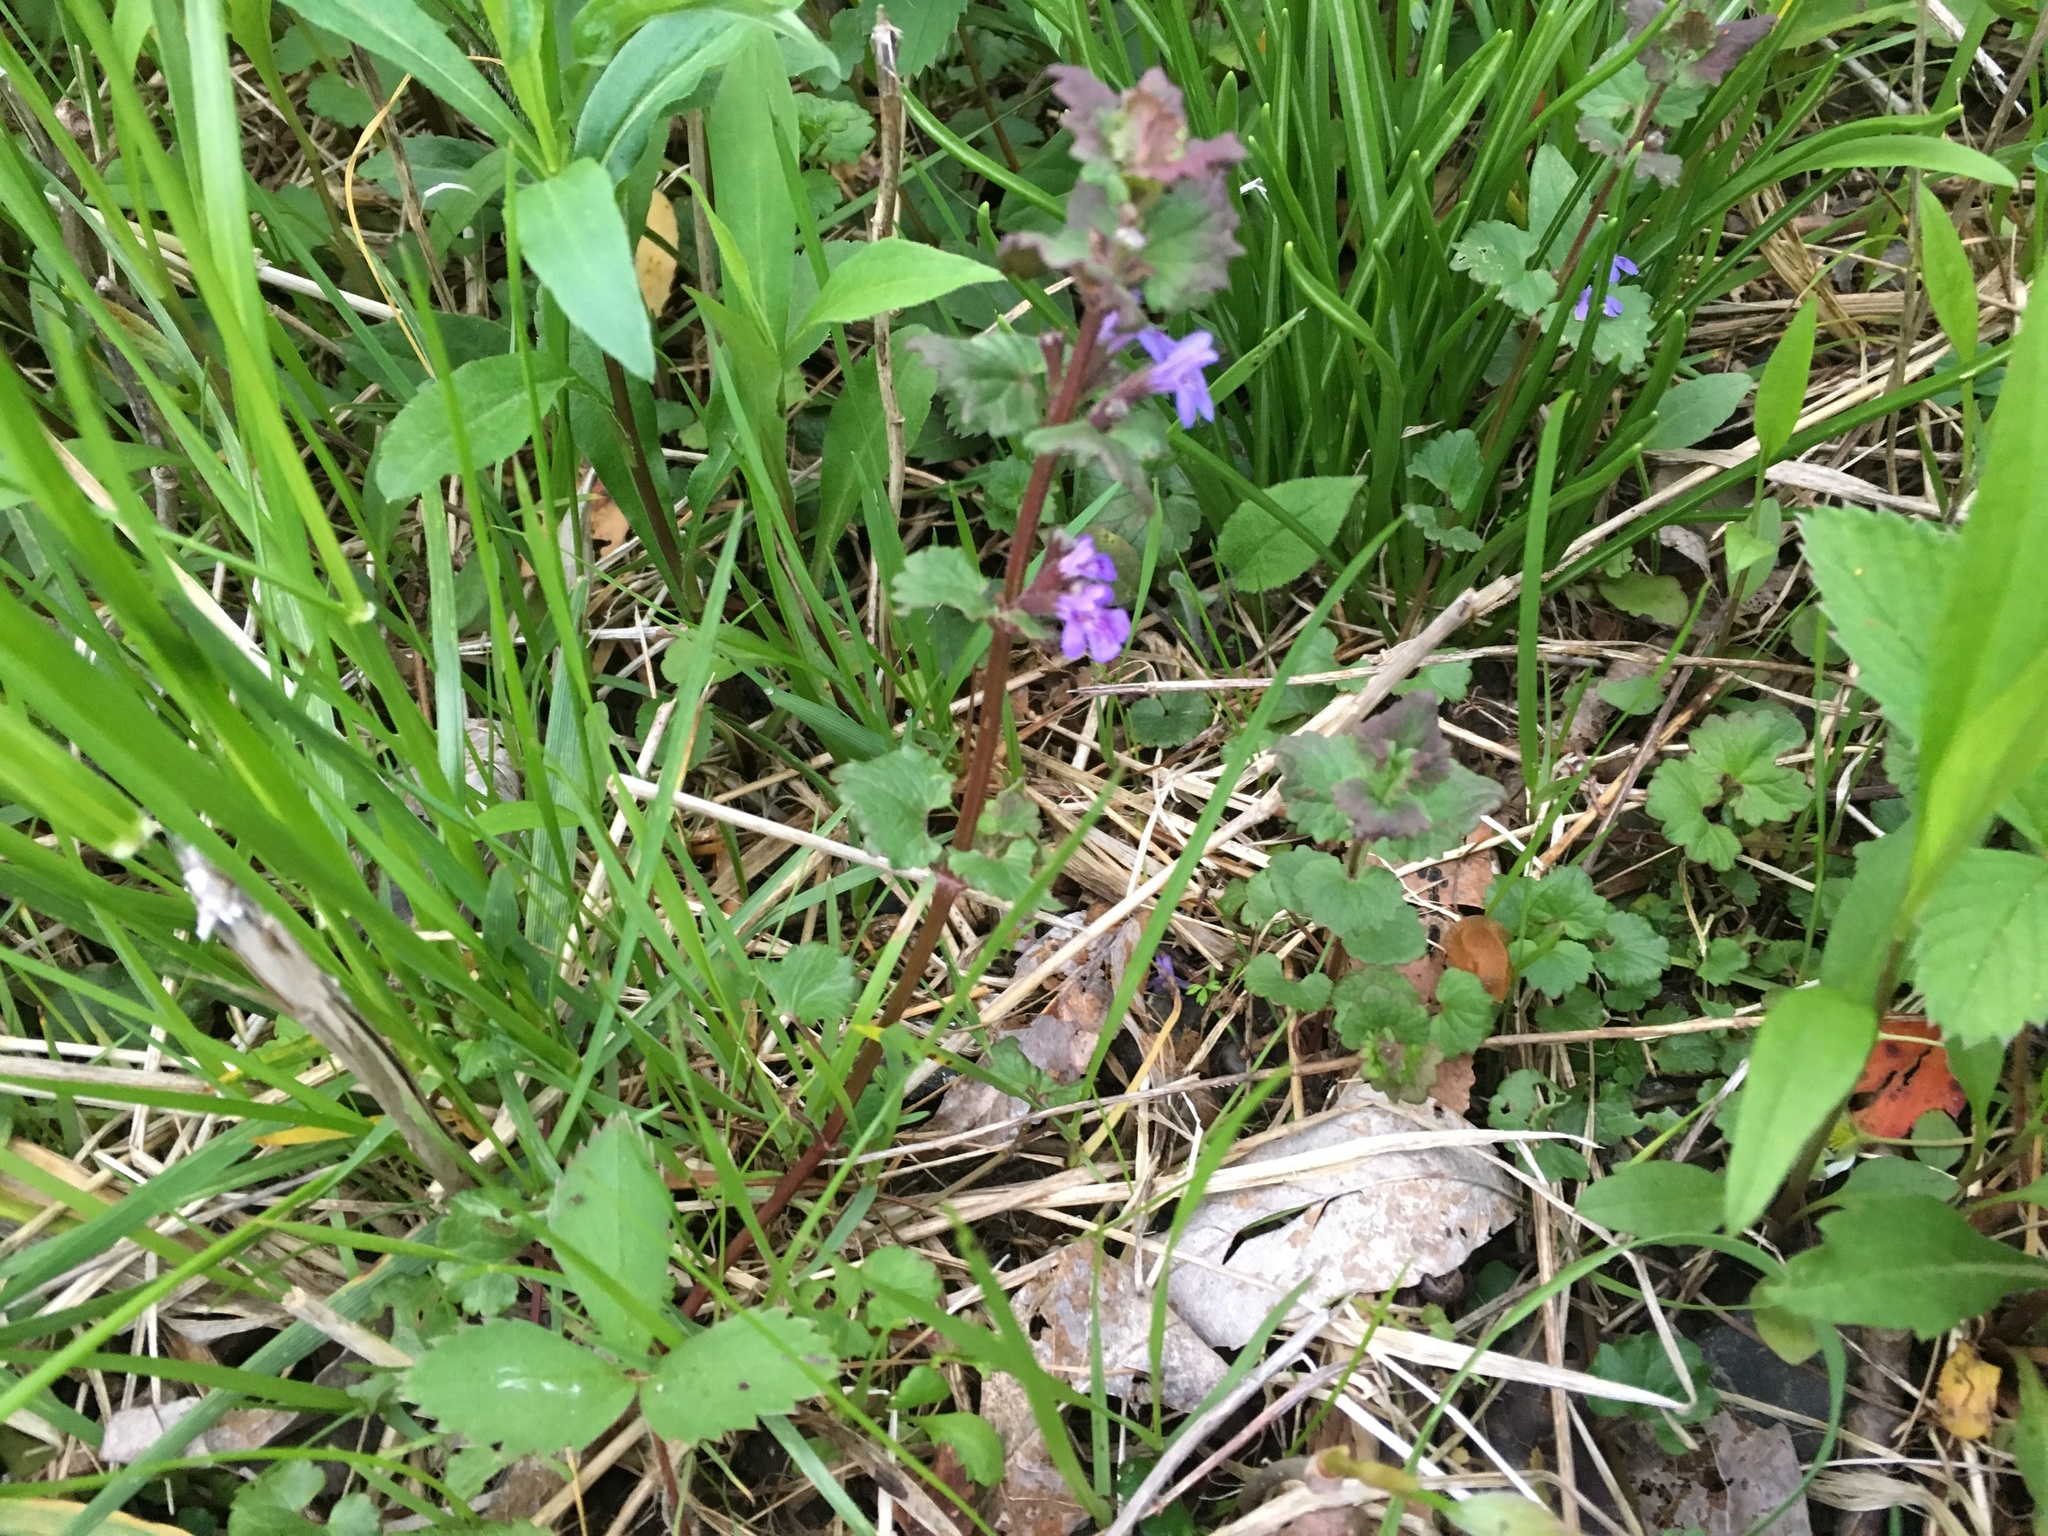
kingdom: Plantae
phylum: Tracheophyta
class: Magnoliopsida
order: Lamiales
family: Lamiaceae
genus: Glechoma
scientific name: Glechoma hederacea
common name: Ground ivy
